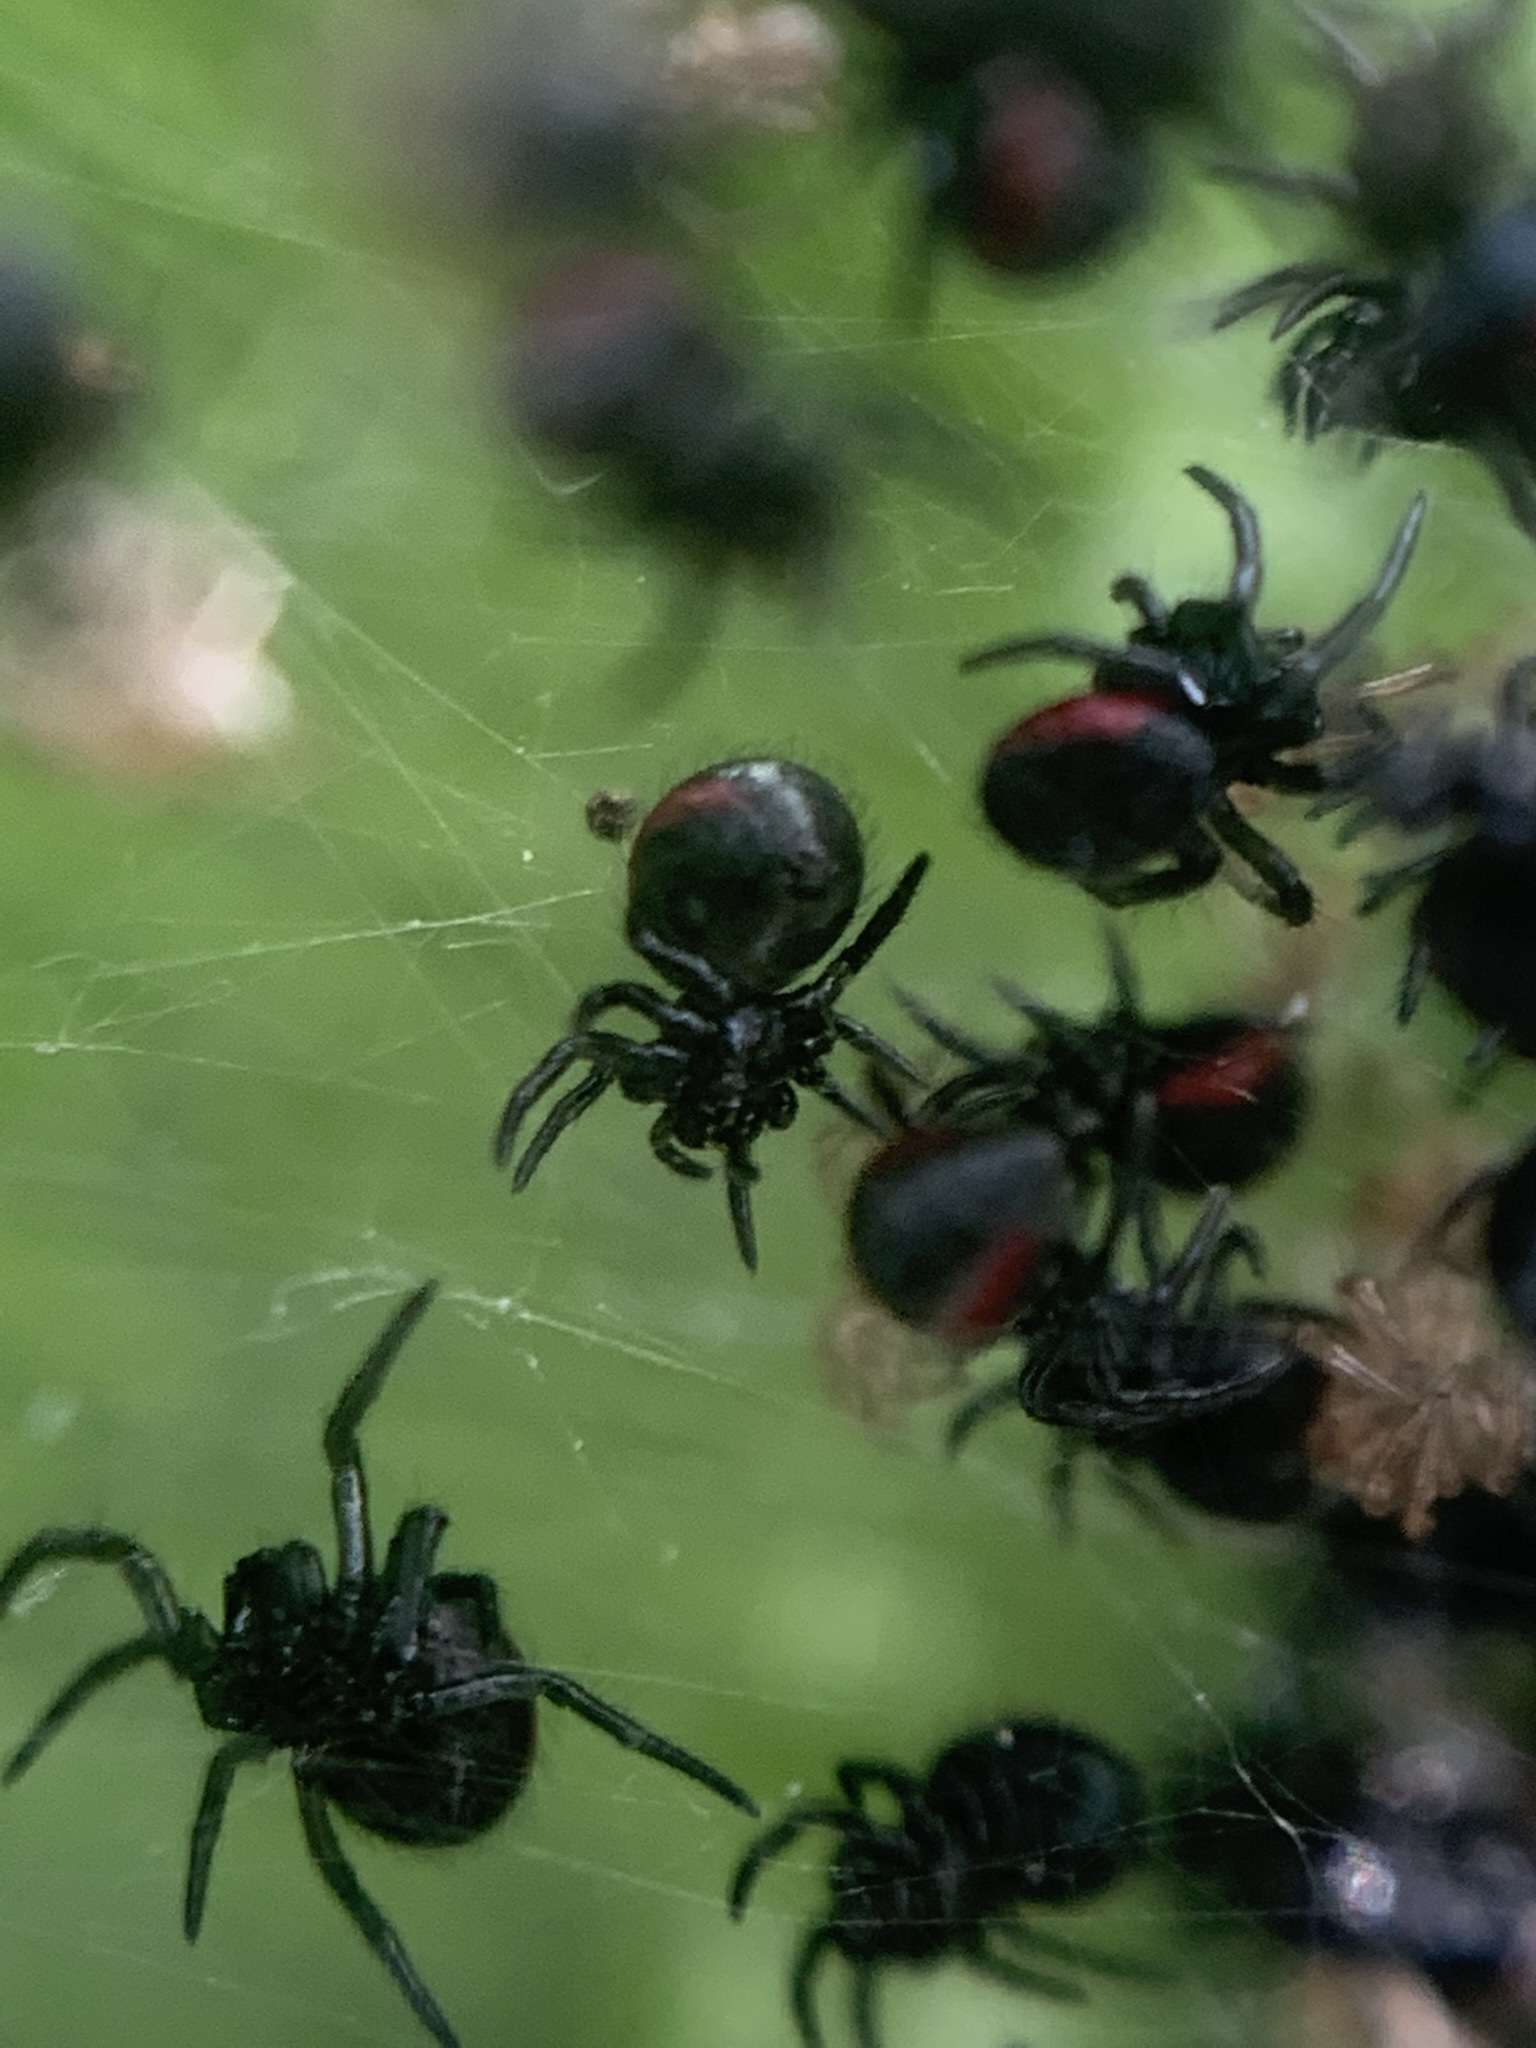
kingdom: Animalia
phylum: Arthropoda
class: Arachnida
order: Araneae
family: Araneidae
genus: Parawixia
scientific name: Parawixia bistriata
